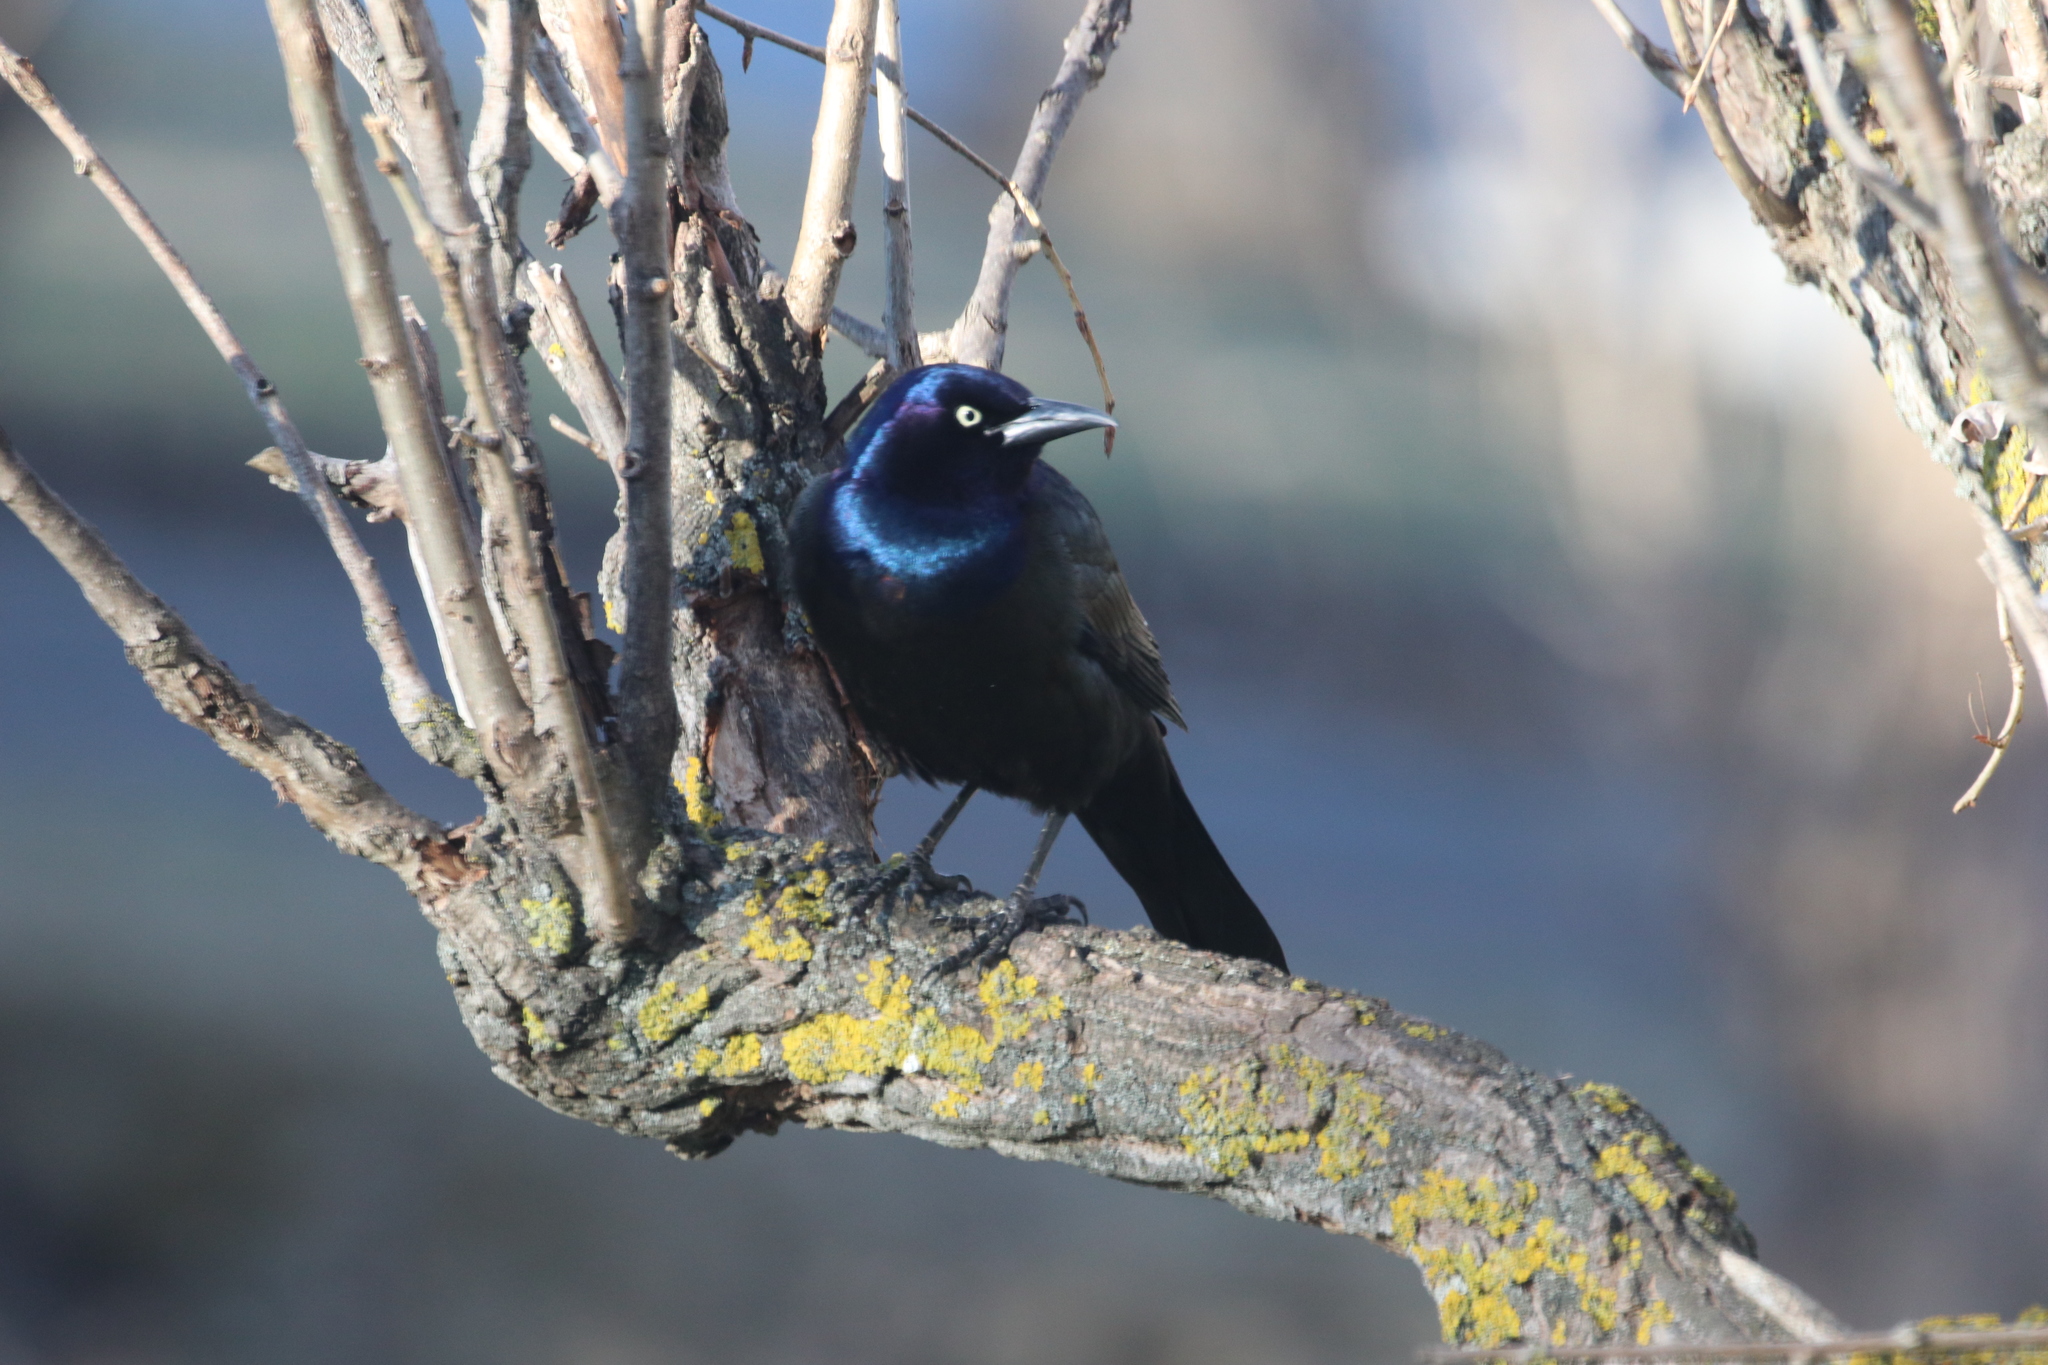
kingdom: Animalia
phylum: Chordata
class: Aves
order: Passeriformes
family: Icteridae
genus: Quiscalus
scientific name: Quiscalus quiscula
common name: Common grackle
